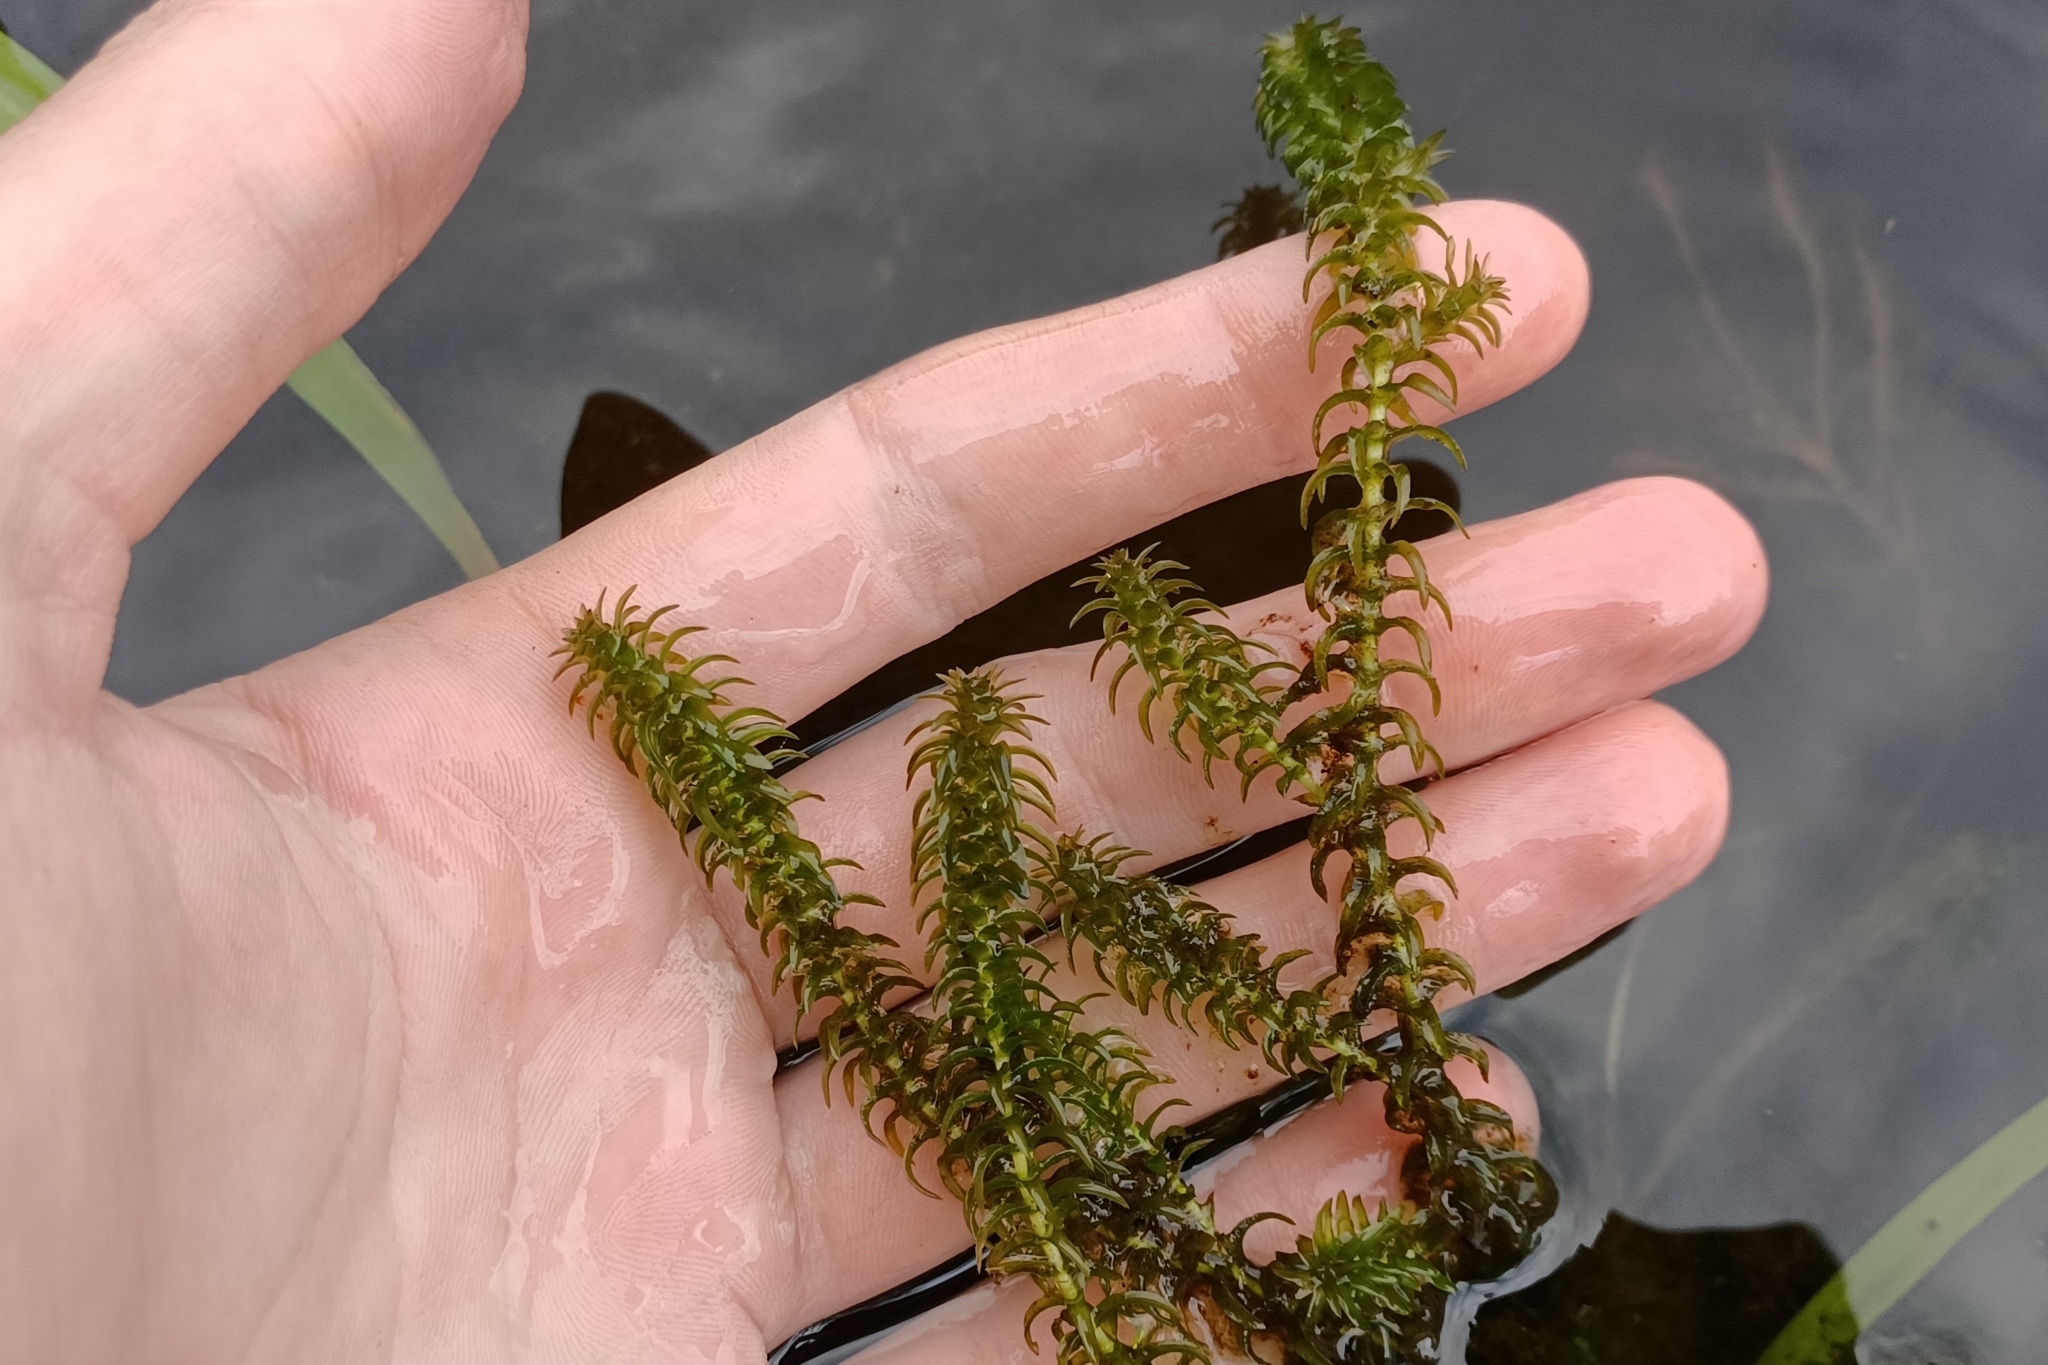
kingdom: Plantae
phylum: Tracheophyta
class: Liliopsida
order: Alismatales
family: Hydrocharitaceae
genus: Elodea
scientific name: Elodea canadensis
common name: Canadian waterweed
